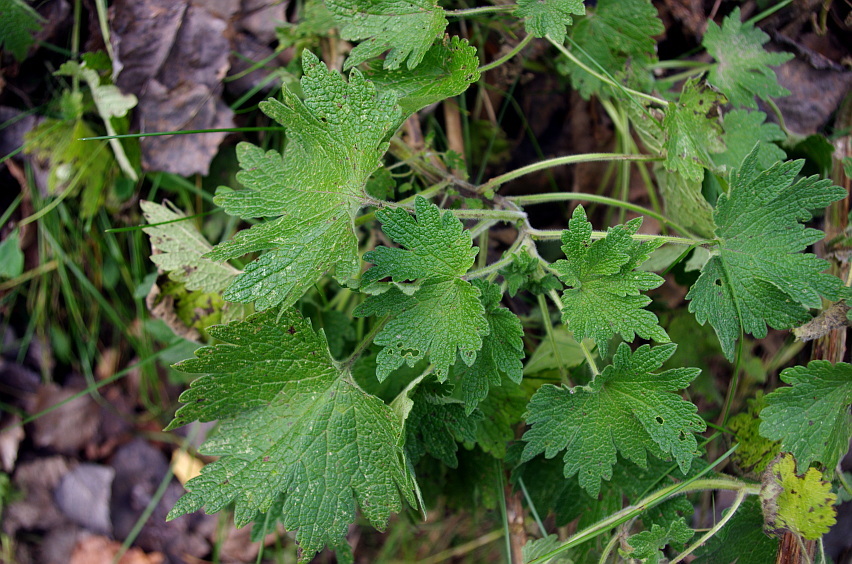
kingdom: Plantae
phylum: Tracheophyta
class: Magnoliopsida
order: Lamiales
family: Lamiaceae
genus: Leonurus
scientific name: Leonurus quinquelobatus
